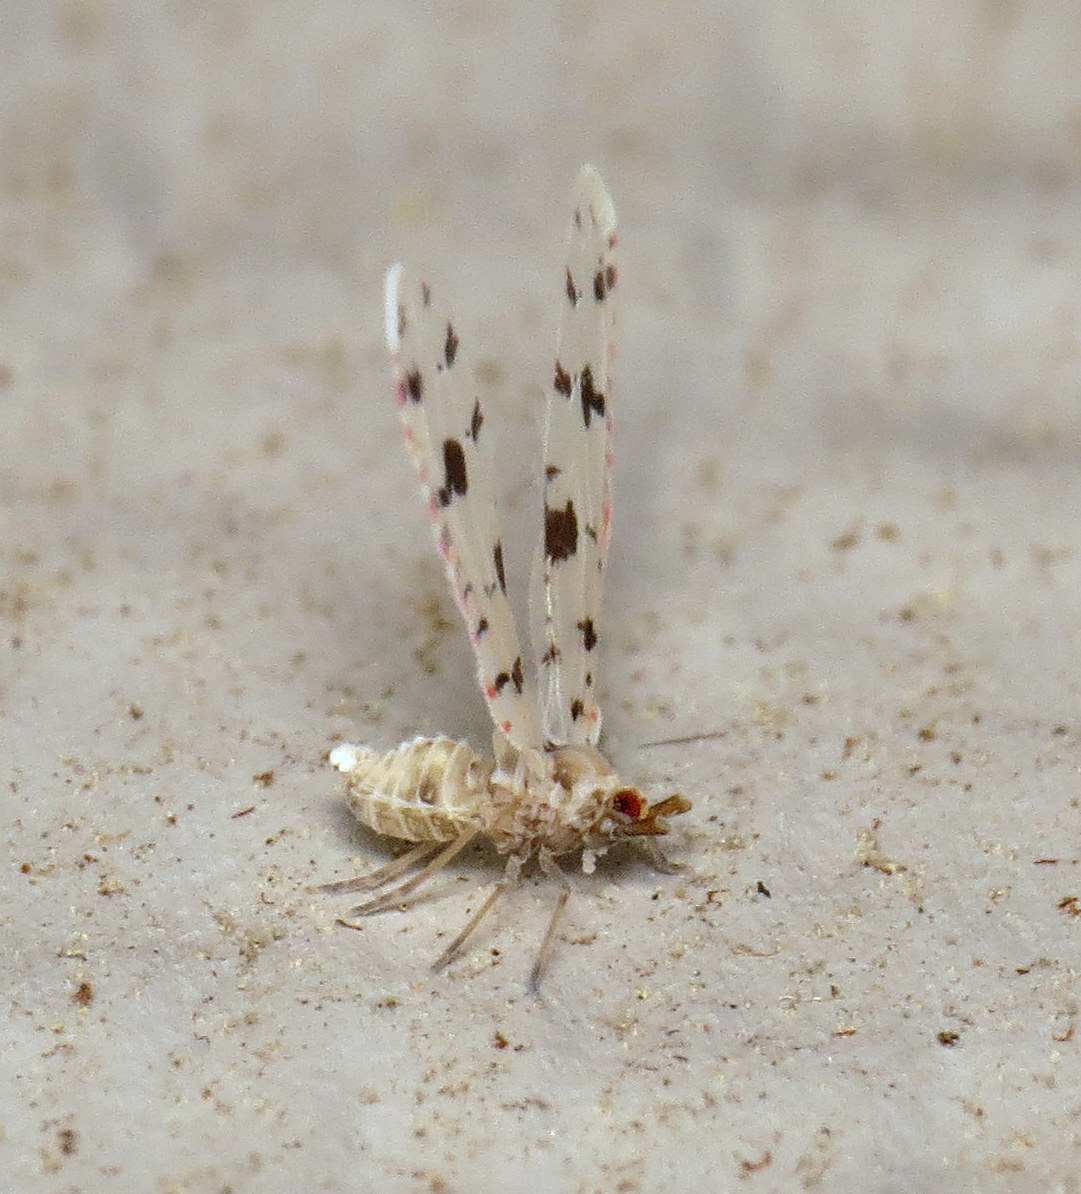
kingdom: Animalia
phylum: Arthropoda
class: Insecta
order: Hemiptera
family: Derbidae
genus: Sikaiana
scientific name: Sikaiana harti
